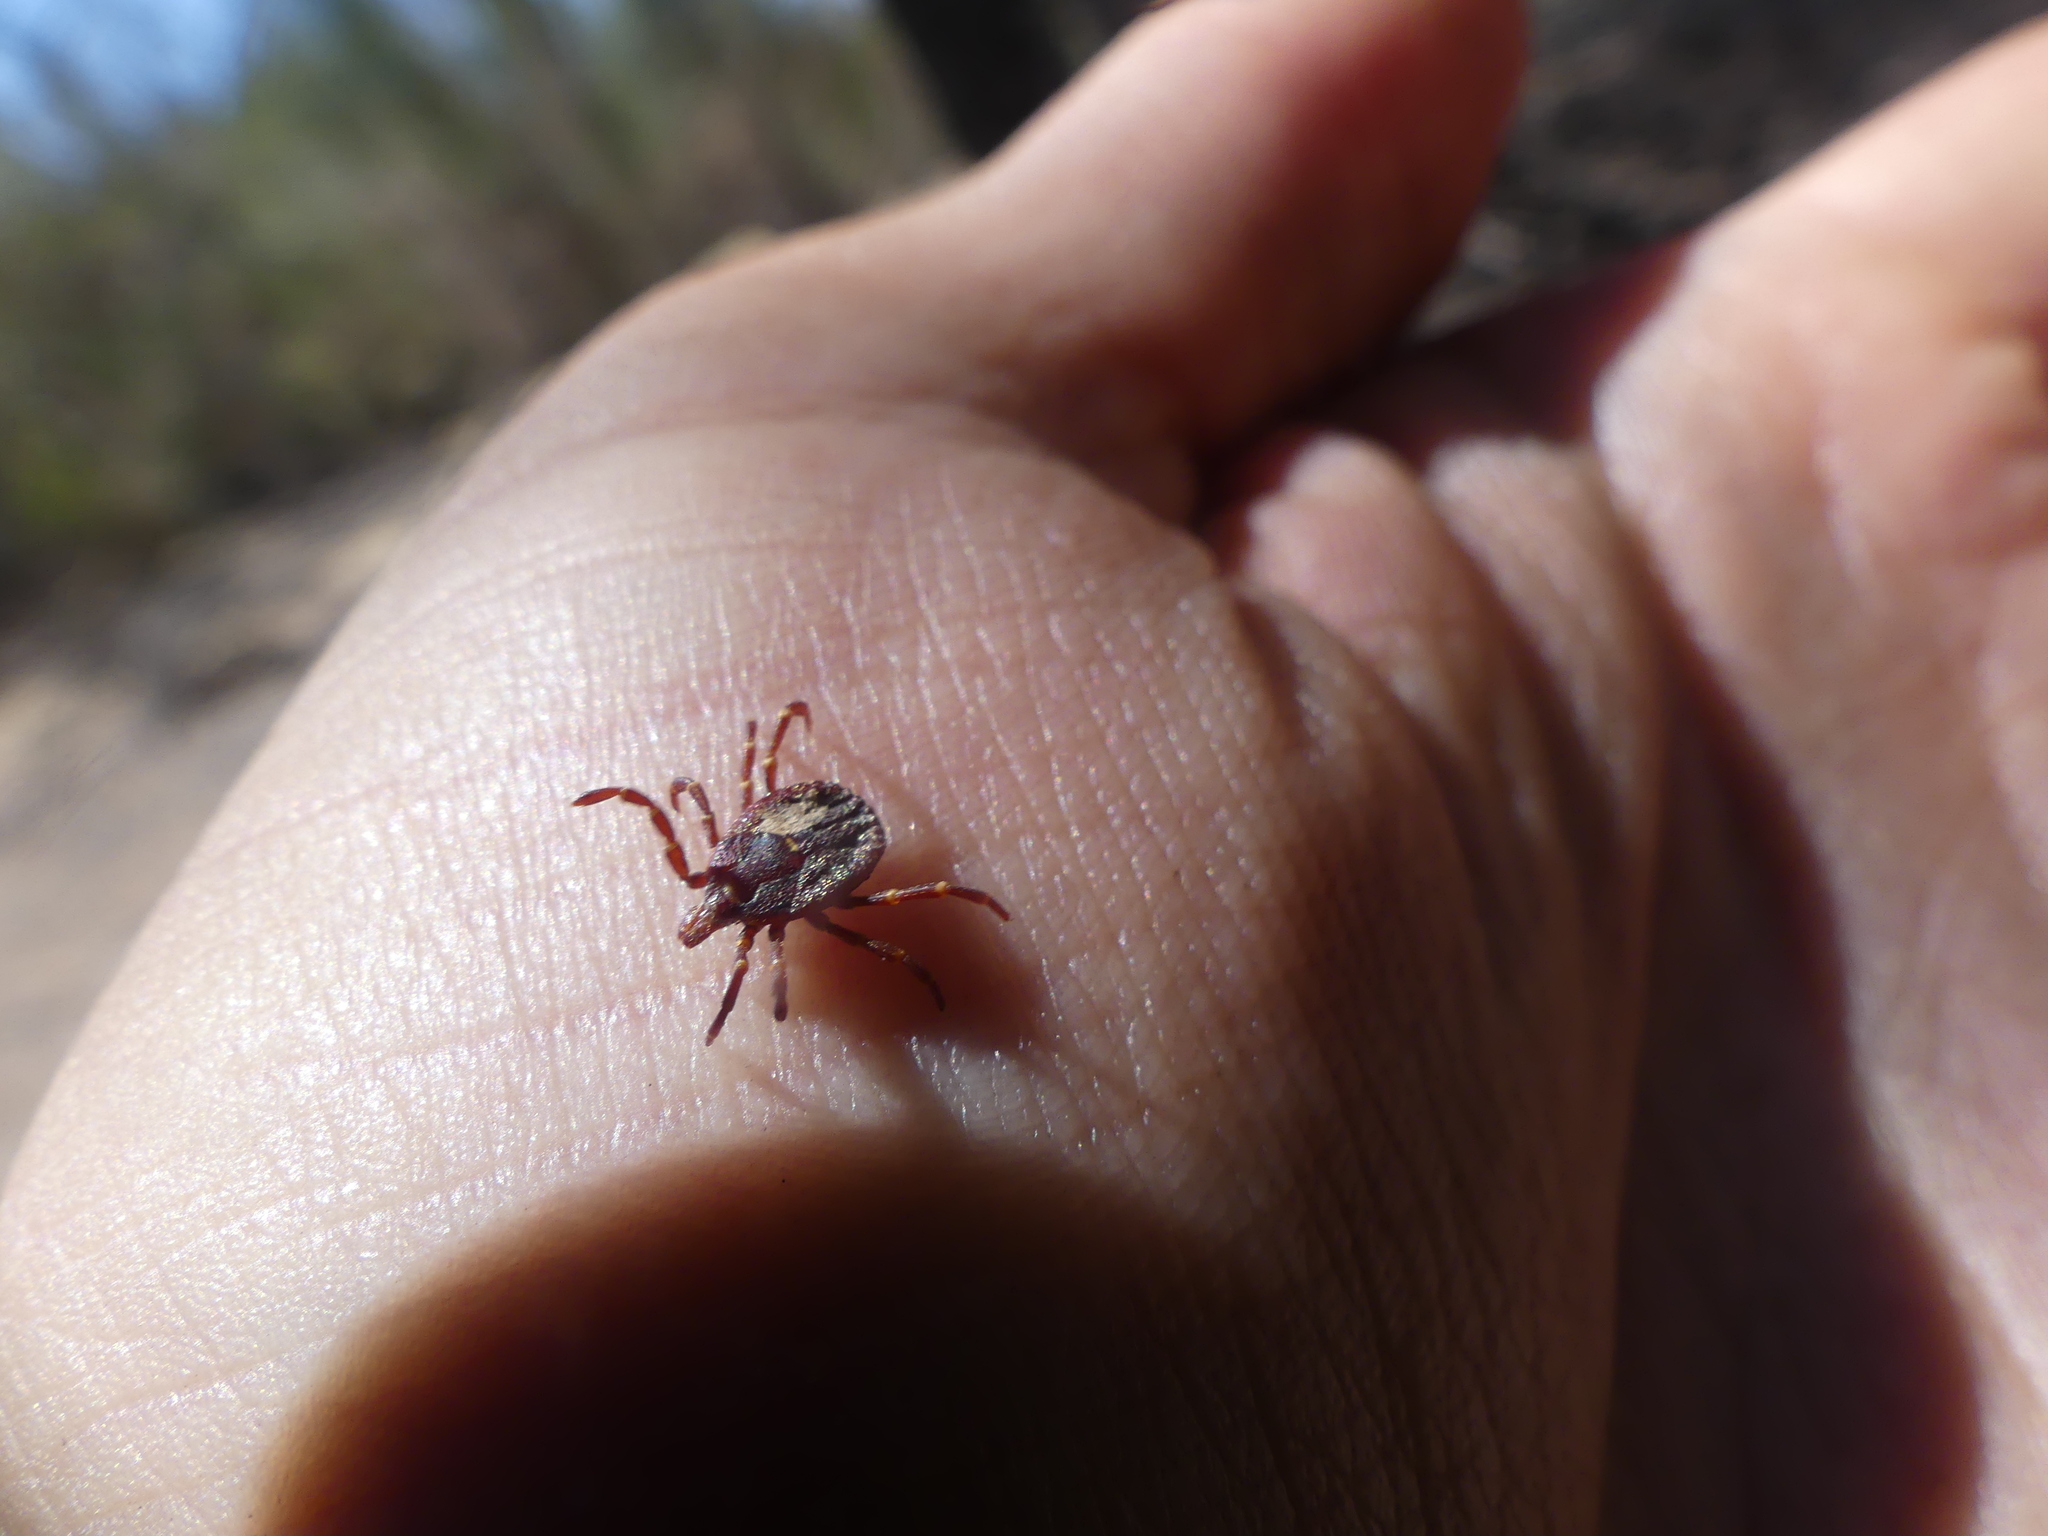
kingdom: Animalia
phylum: Arthropoda
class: Arachnida
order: Ixodida
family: Ixodidae
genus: Amblyomma
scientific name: Amblyomma triguttatum
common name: Kangaroo hard tick
